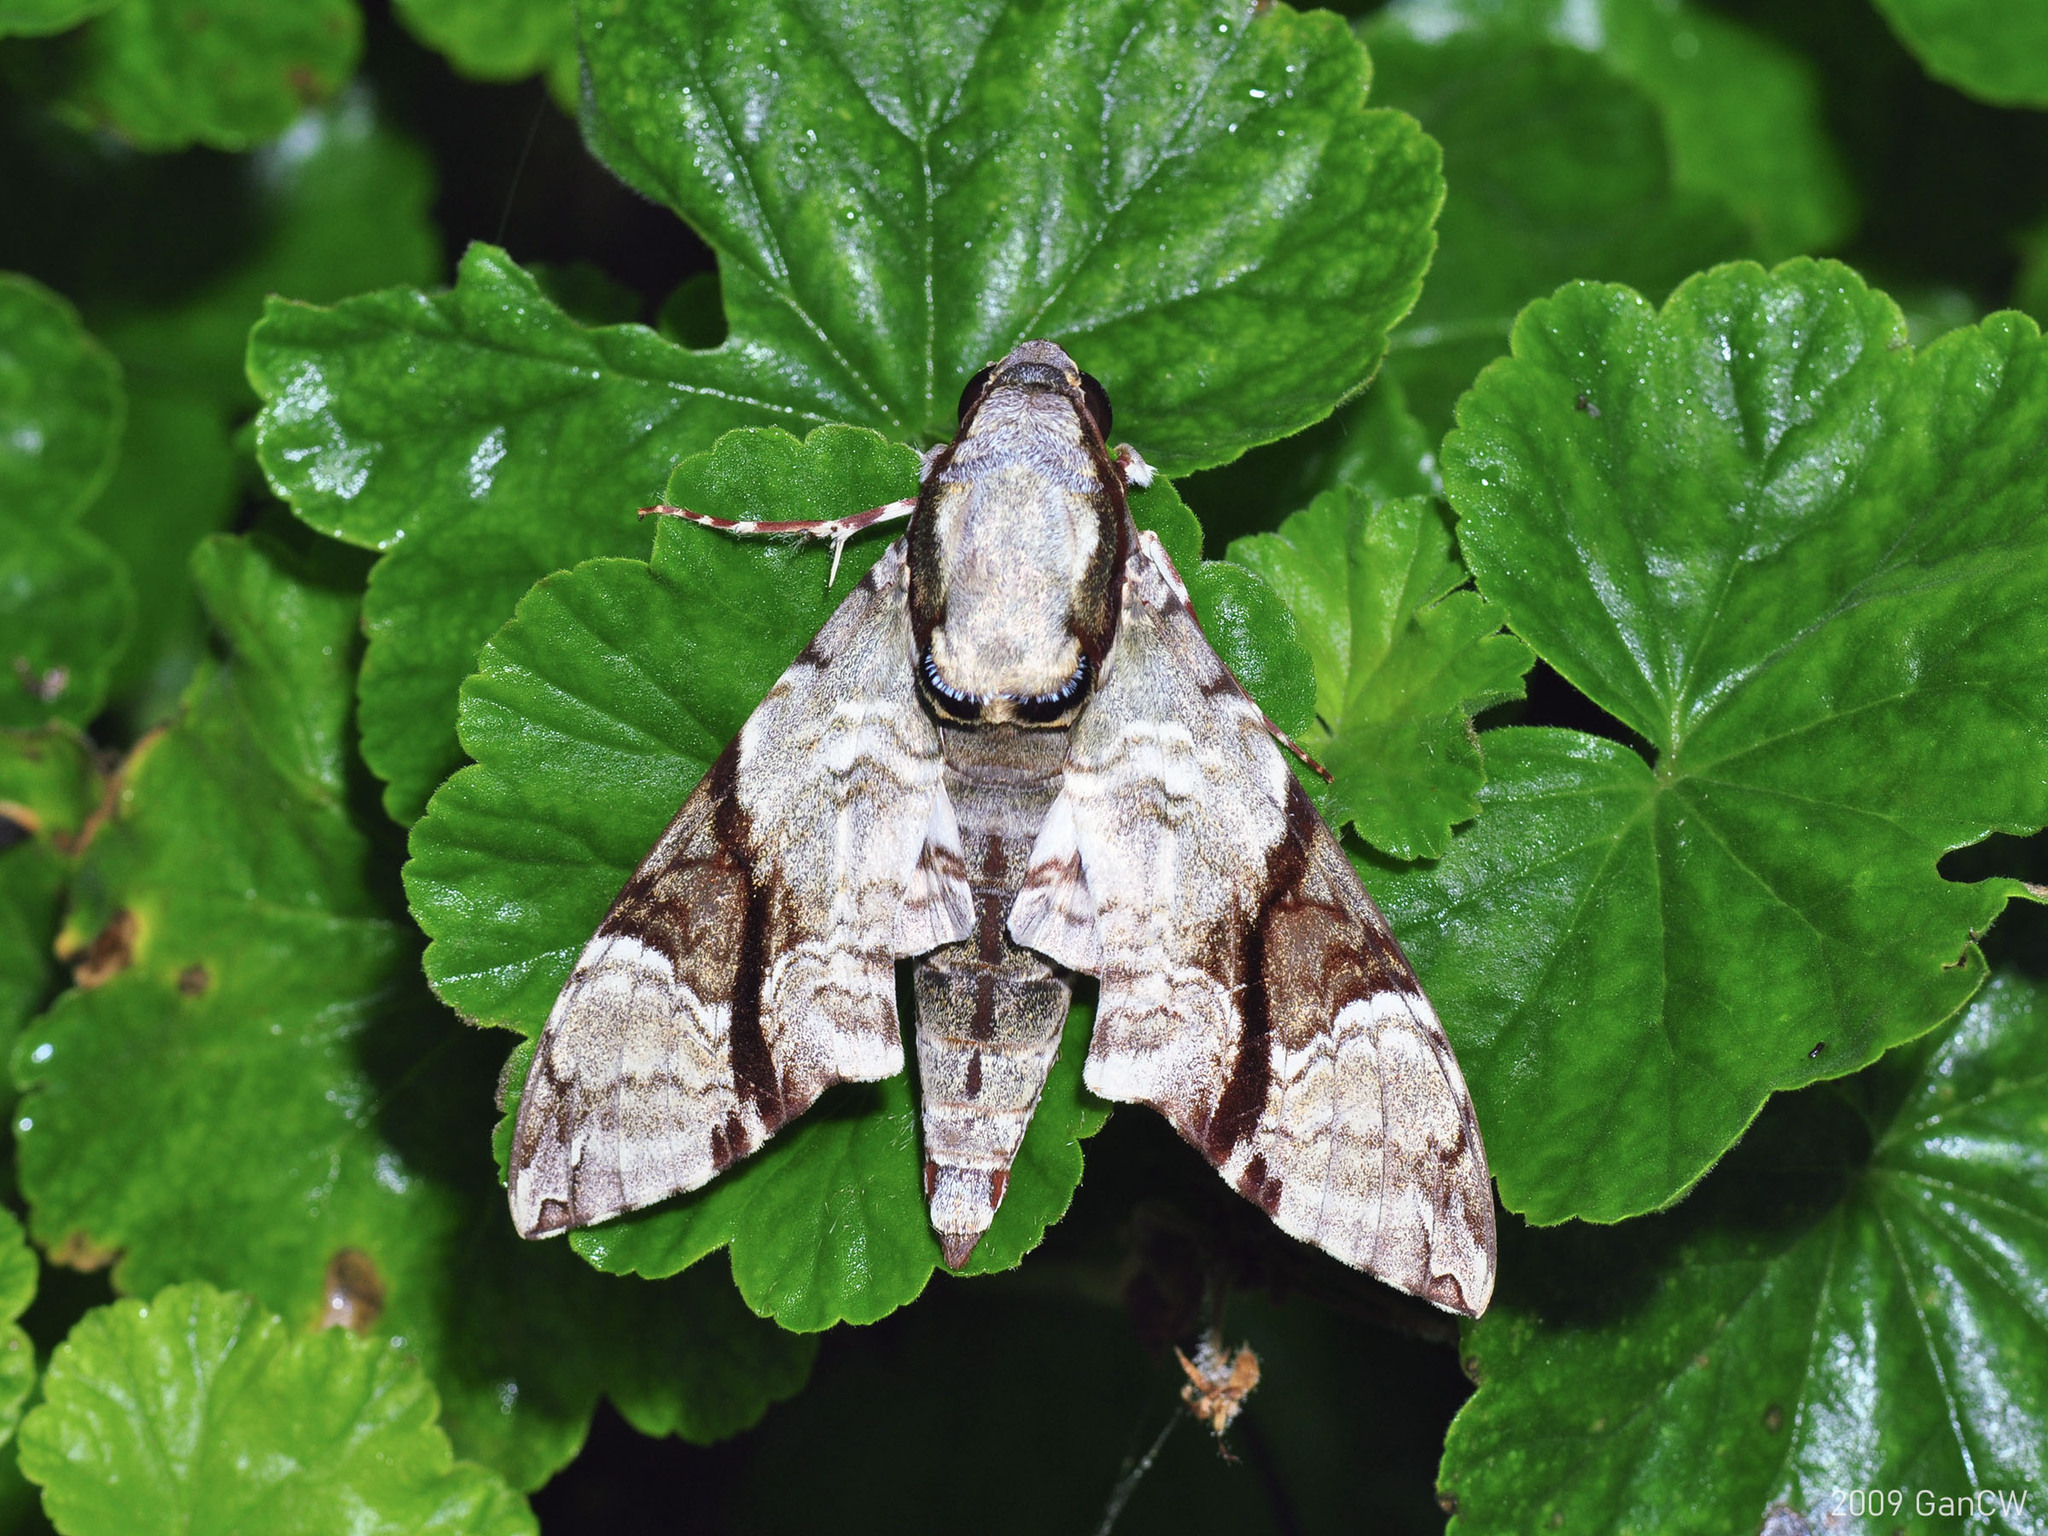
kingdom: Animalia
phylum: Arthropoda
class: Insecta
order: Lepidoptera
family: Sphingidae
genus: Megacorma
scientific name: Megacorma obliqua
